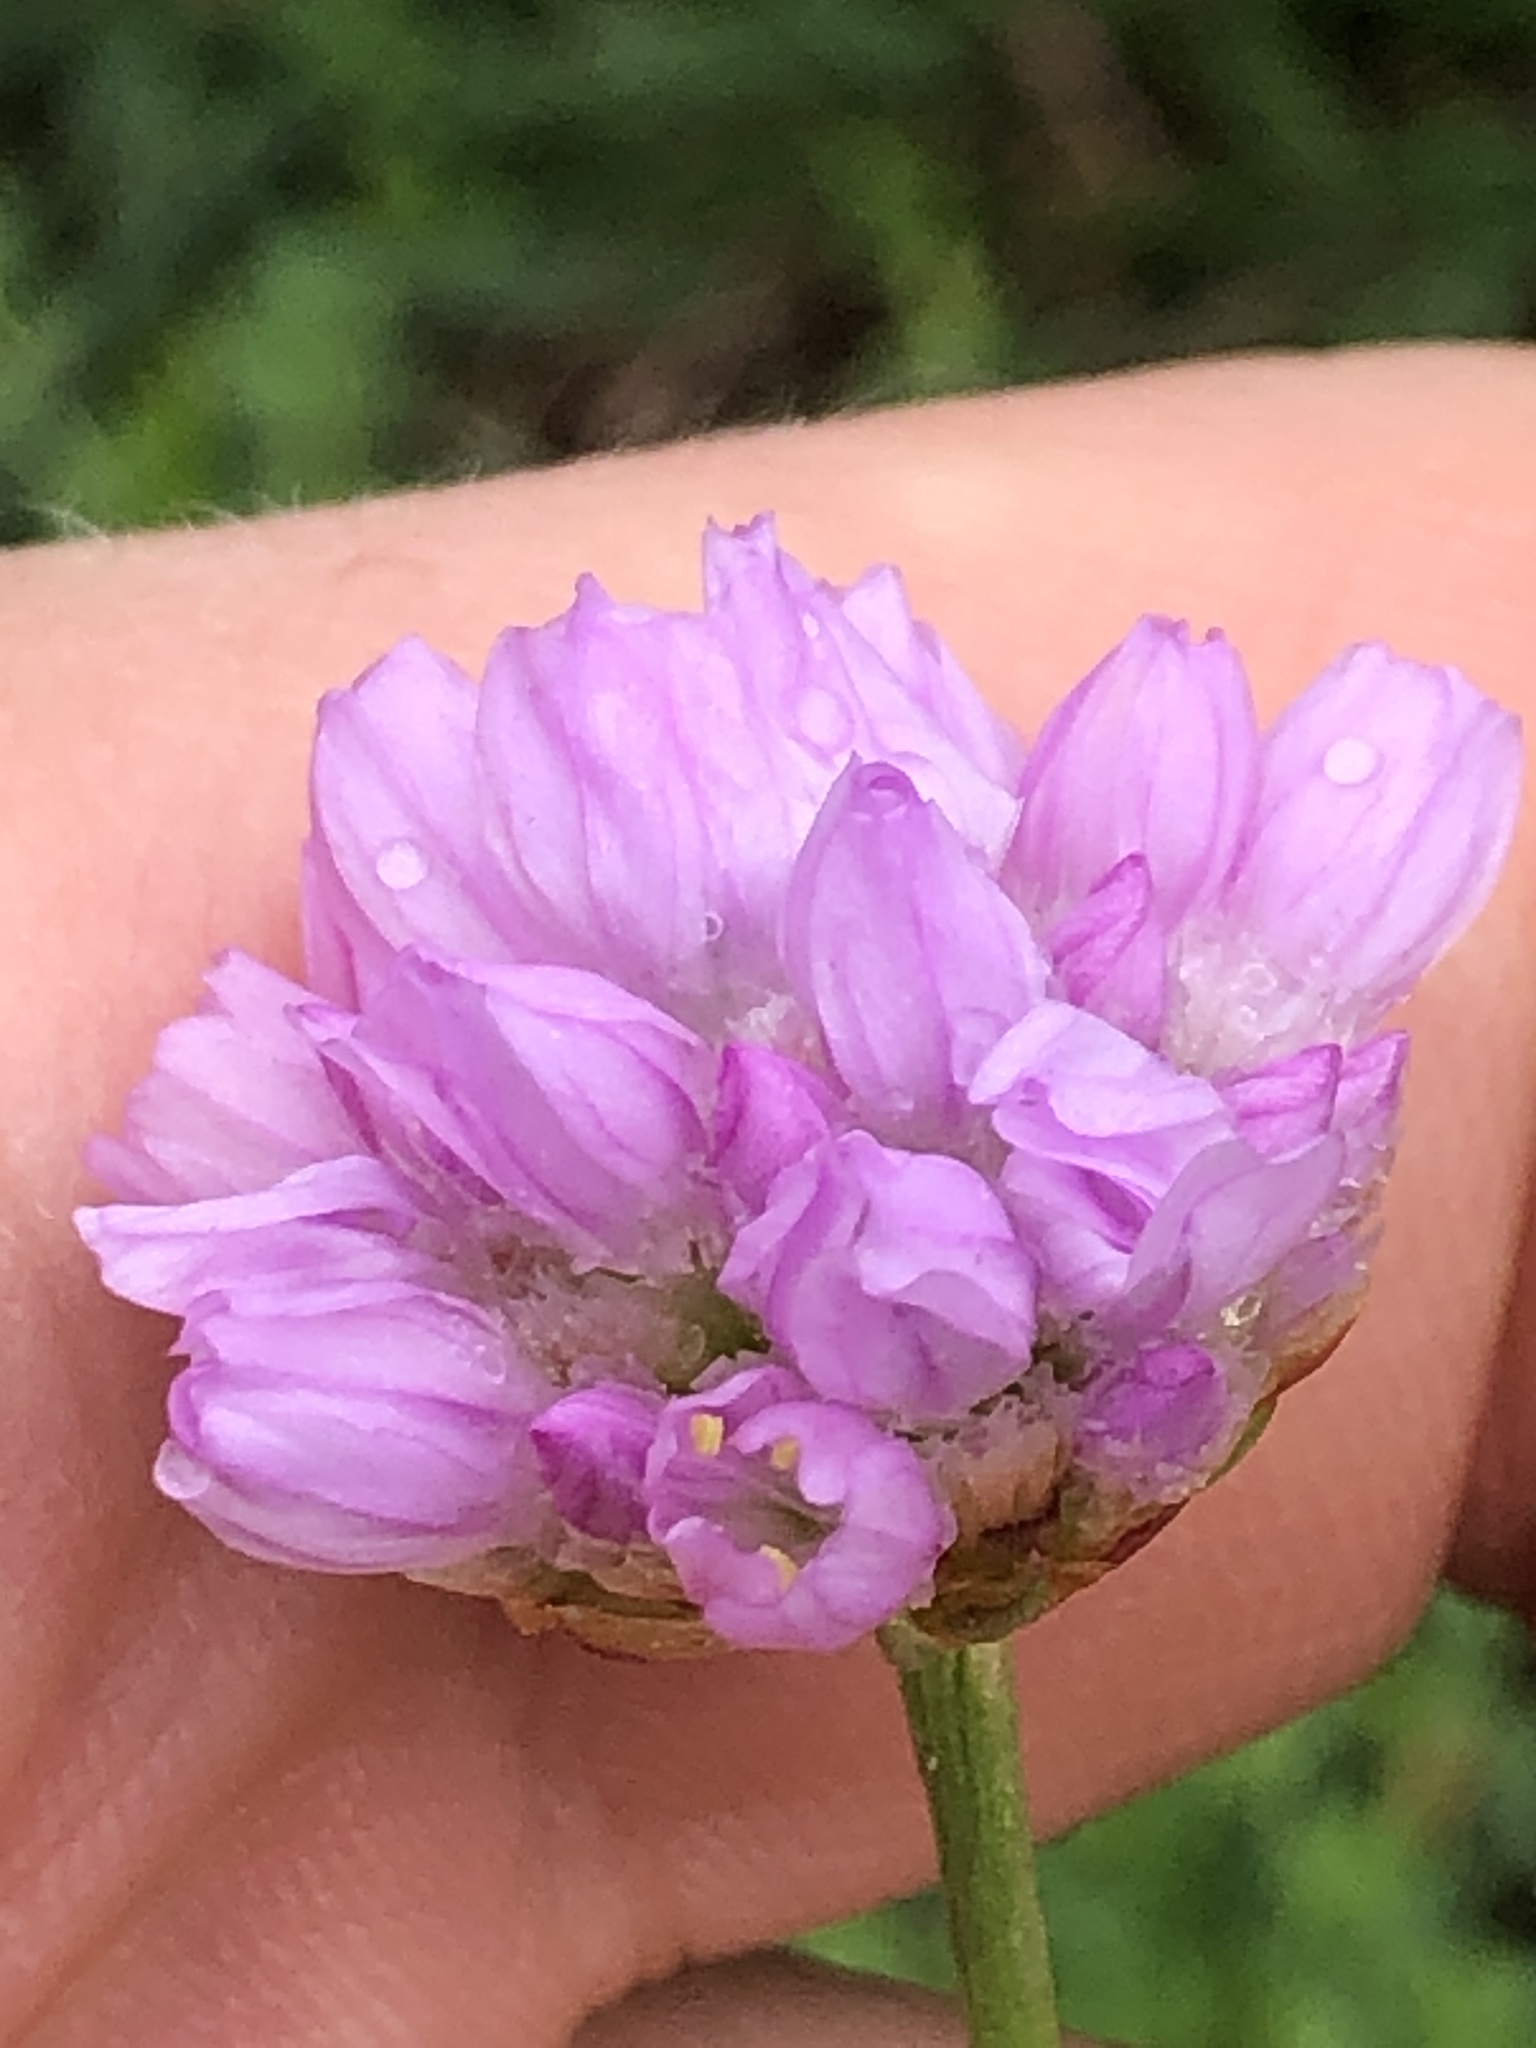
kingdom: Plantae
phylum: Tracheophyta
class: Magnoliopsida
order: Caryophyllales
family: Plumbaginaceae
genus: Armeria
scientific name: Armeria maritima
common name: Thrift
